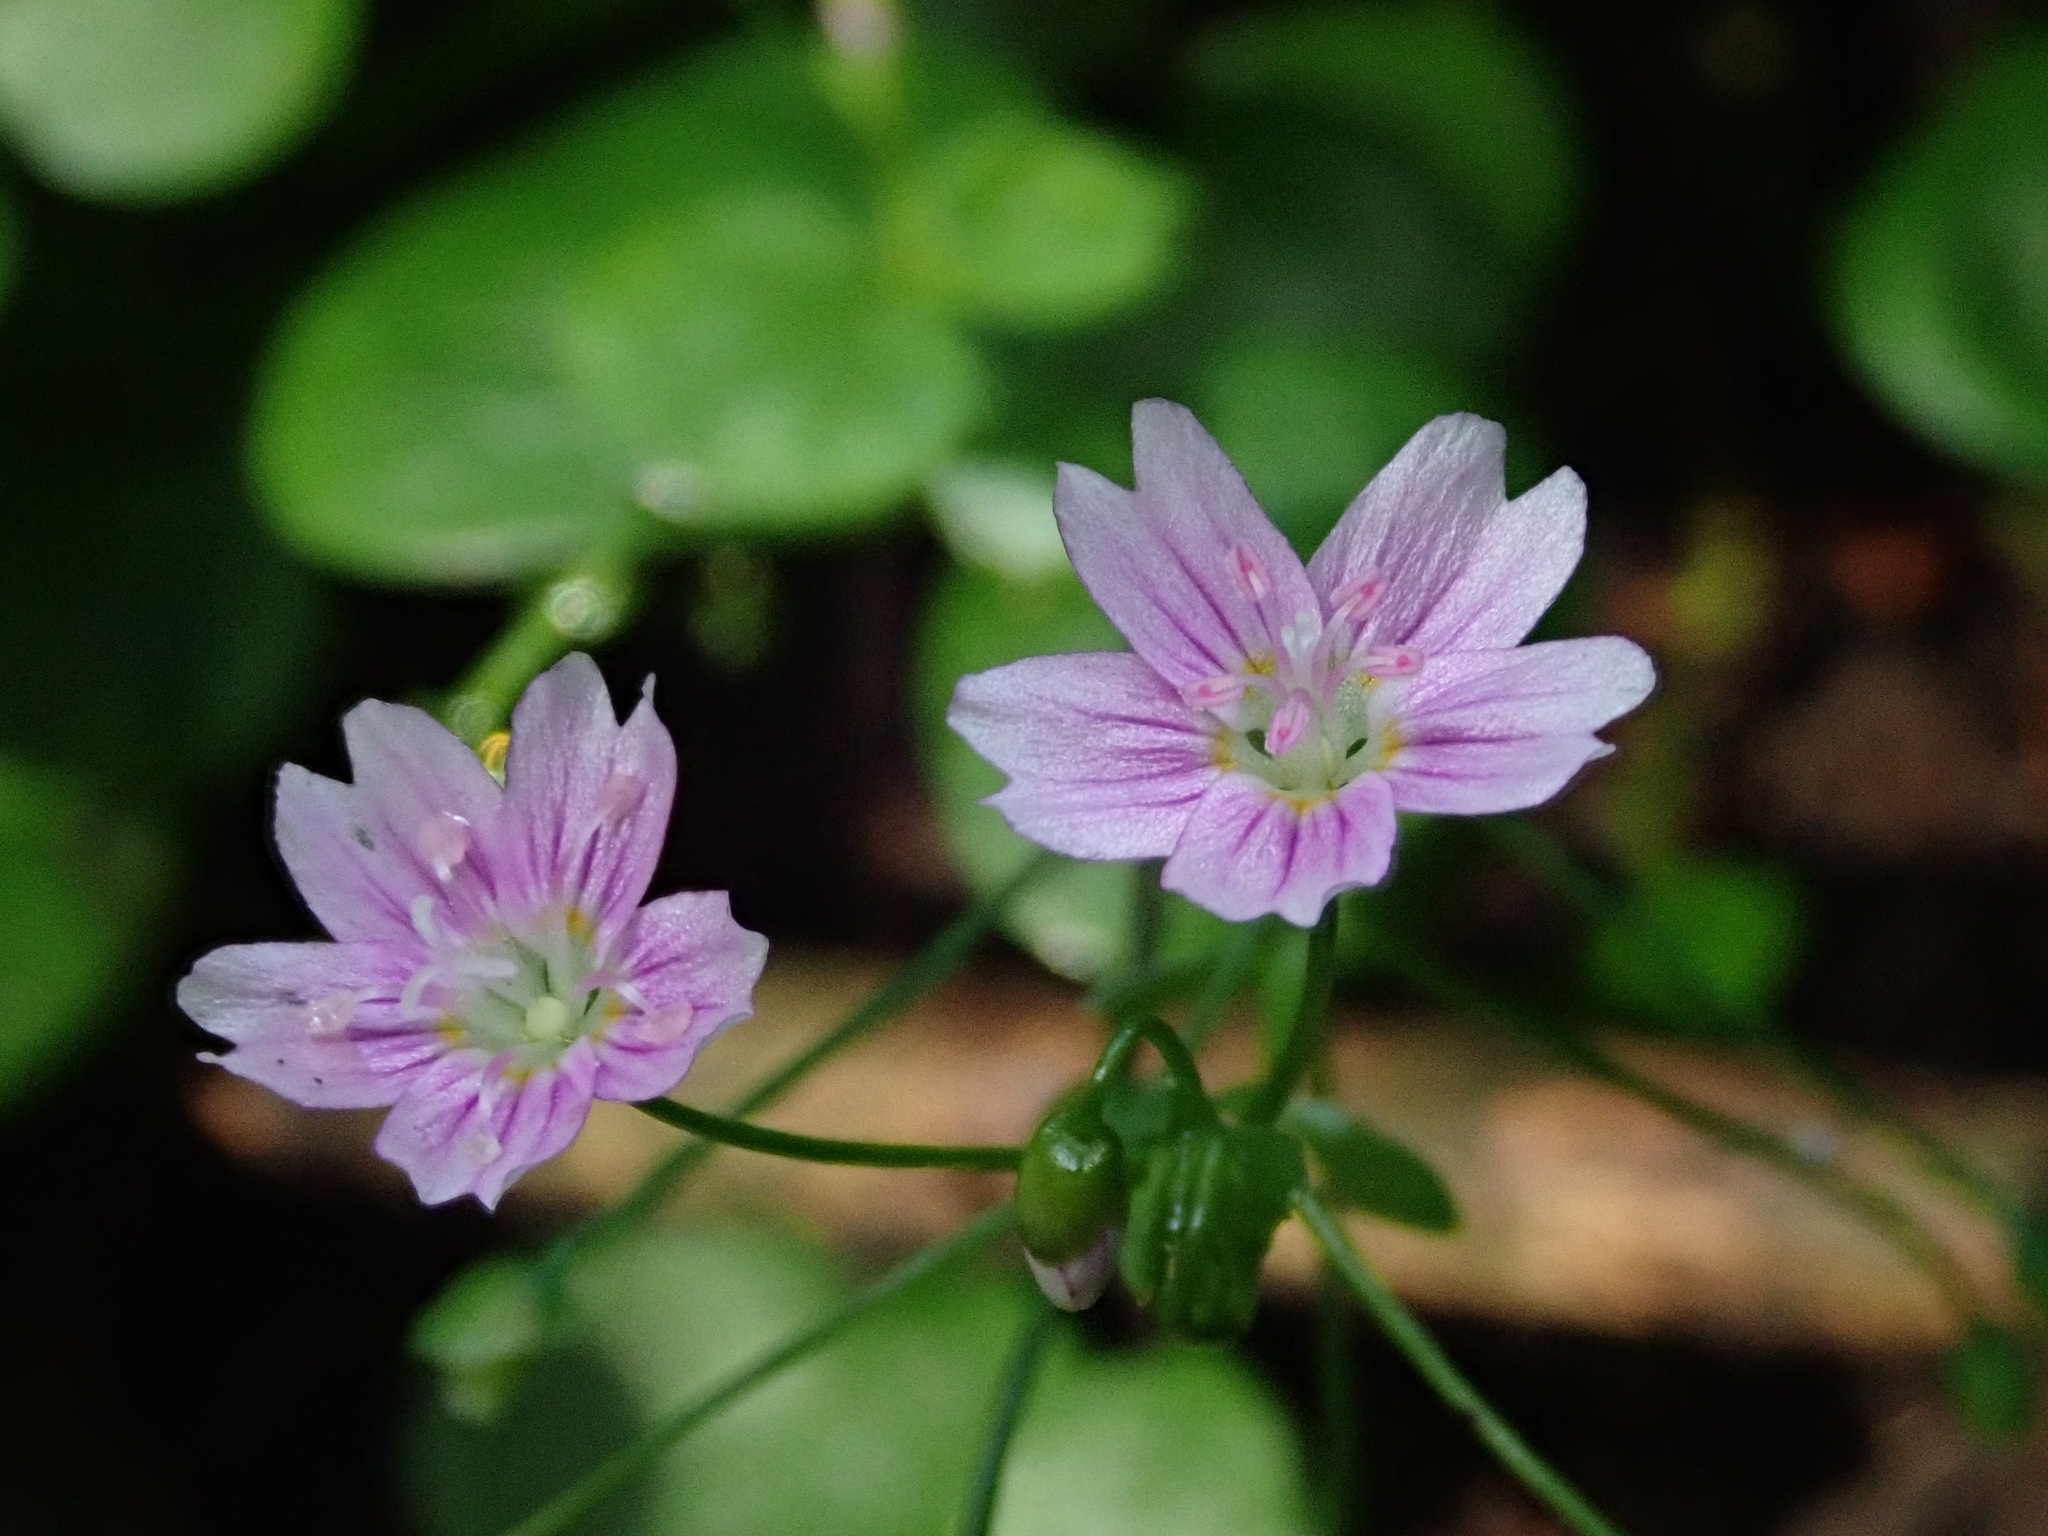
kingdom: Plantae
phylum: Tracheophyta
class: Magnoliopsida
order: Caryophyllales
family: Montiaceae
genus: Claytonia
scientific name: Claytonia sibirica
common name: Pink purslane
